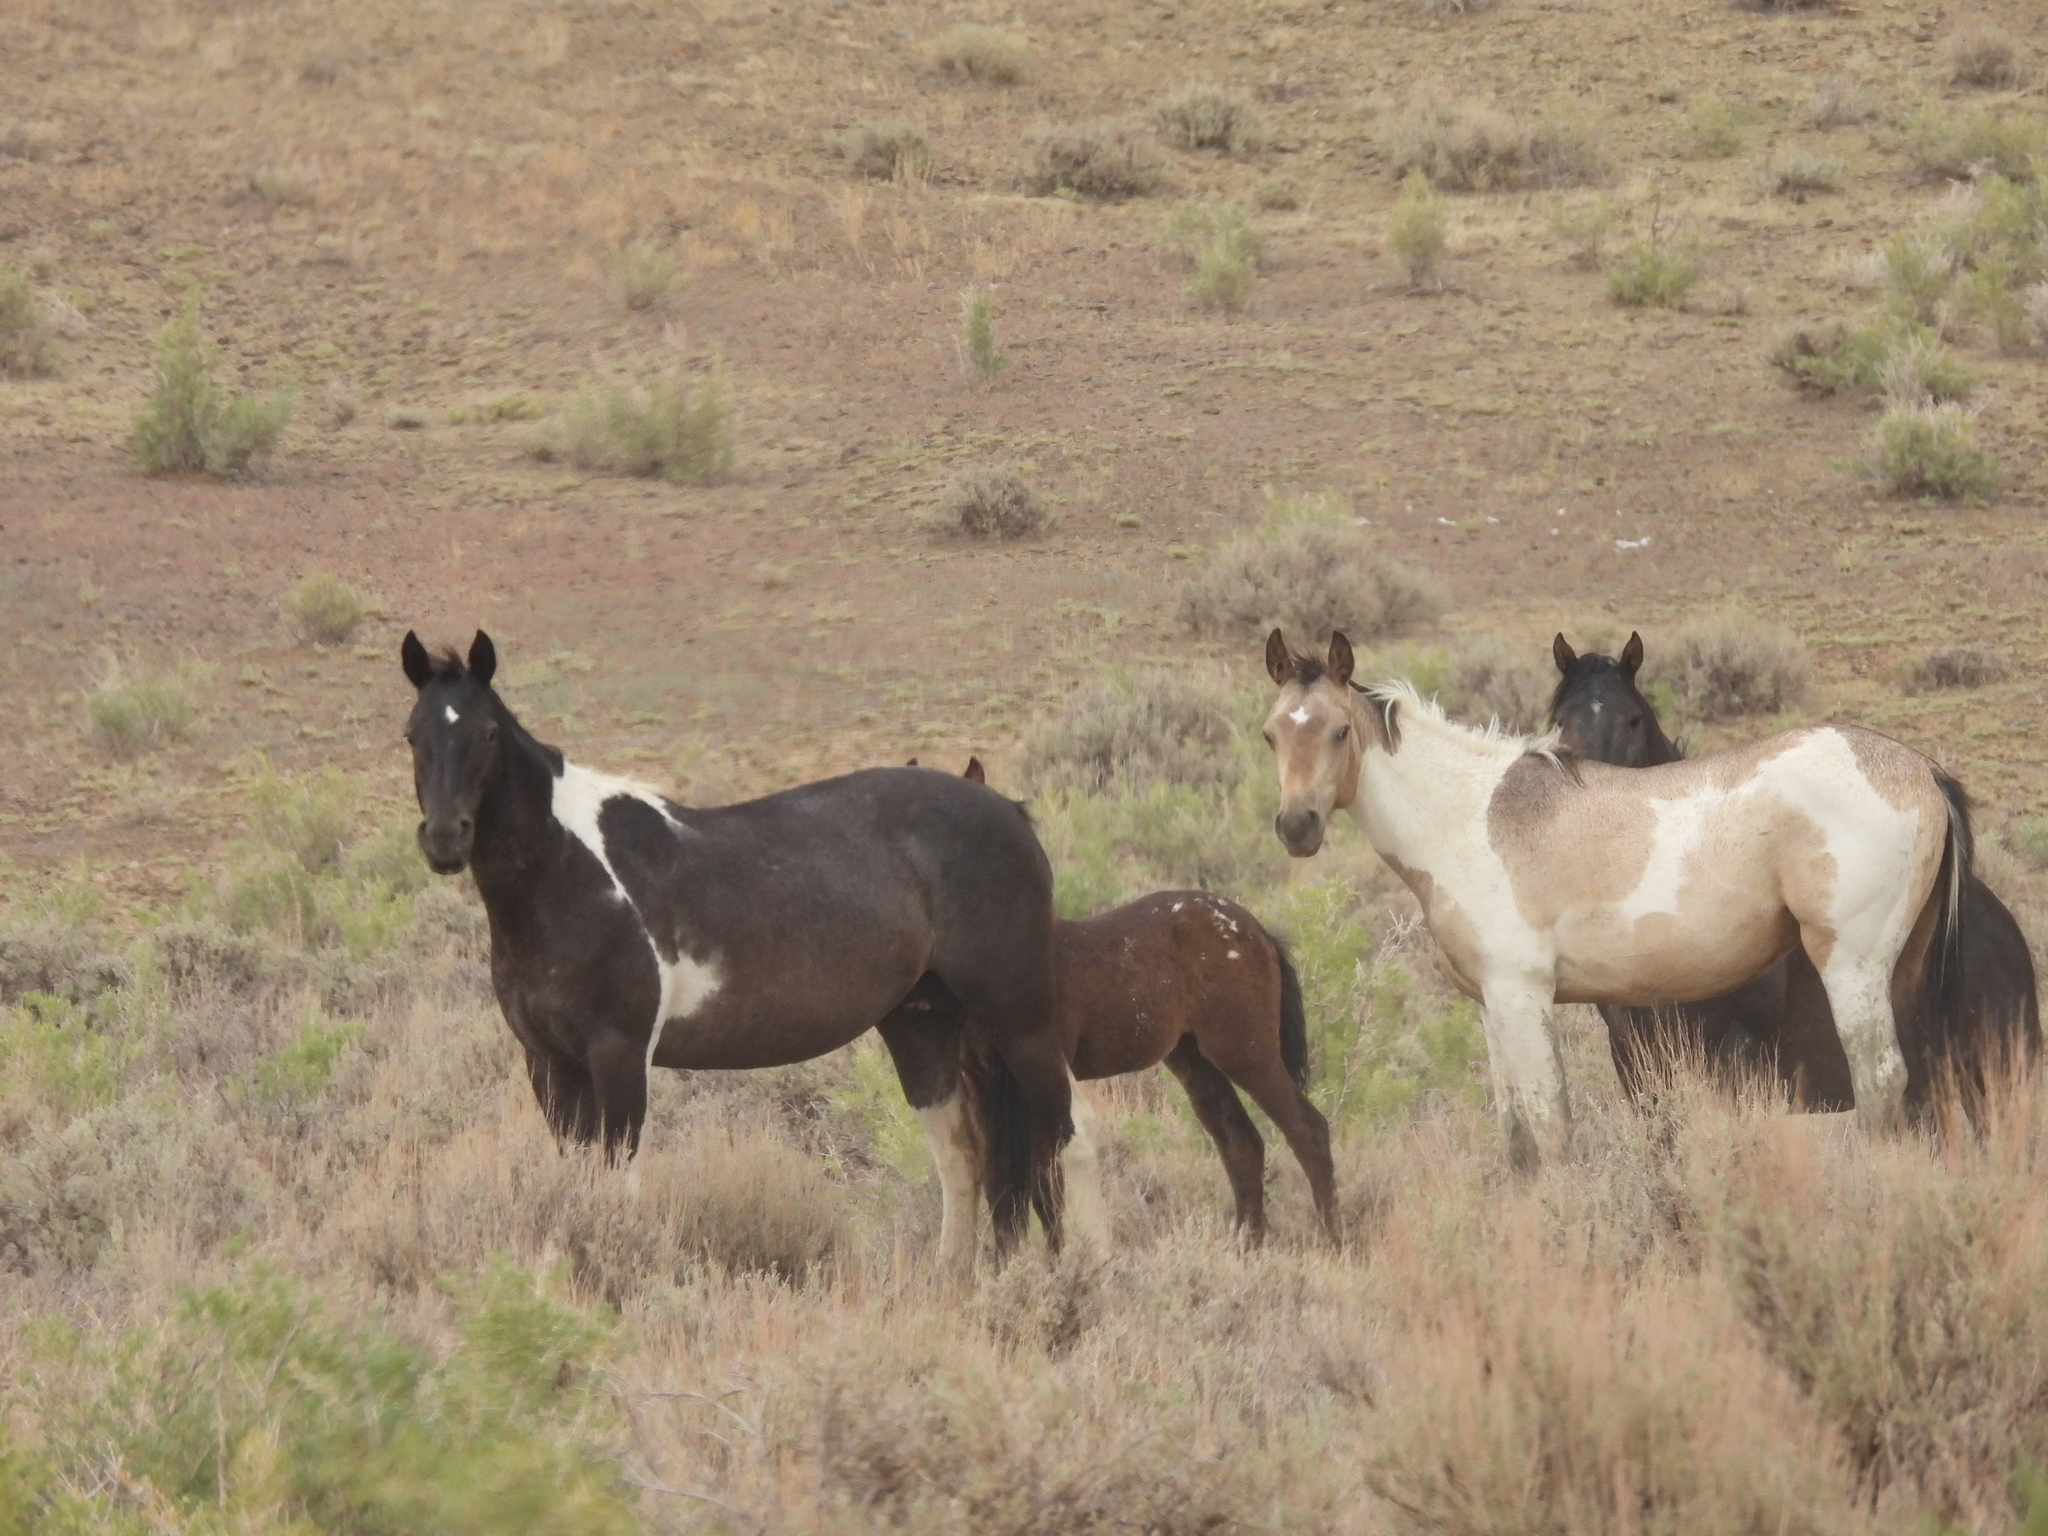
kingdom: Animalia
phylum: Chordata
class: Mammalia
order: Perissodactyla
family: Equidae
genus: Equus
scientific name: Equus caballus
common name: Horse
